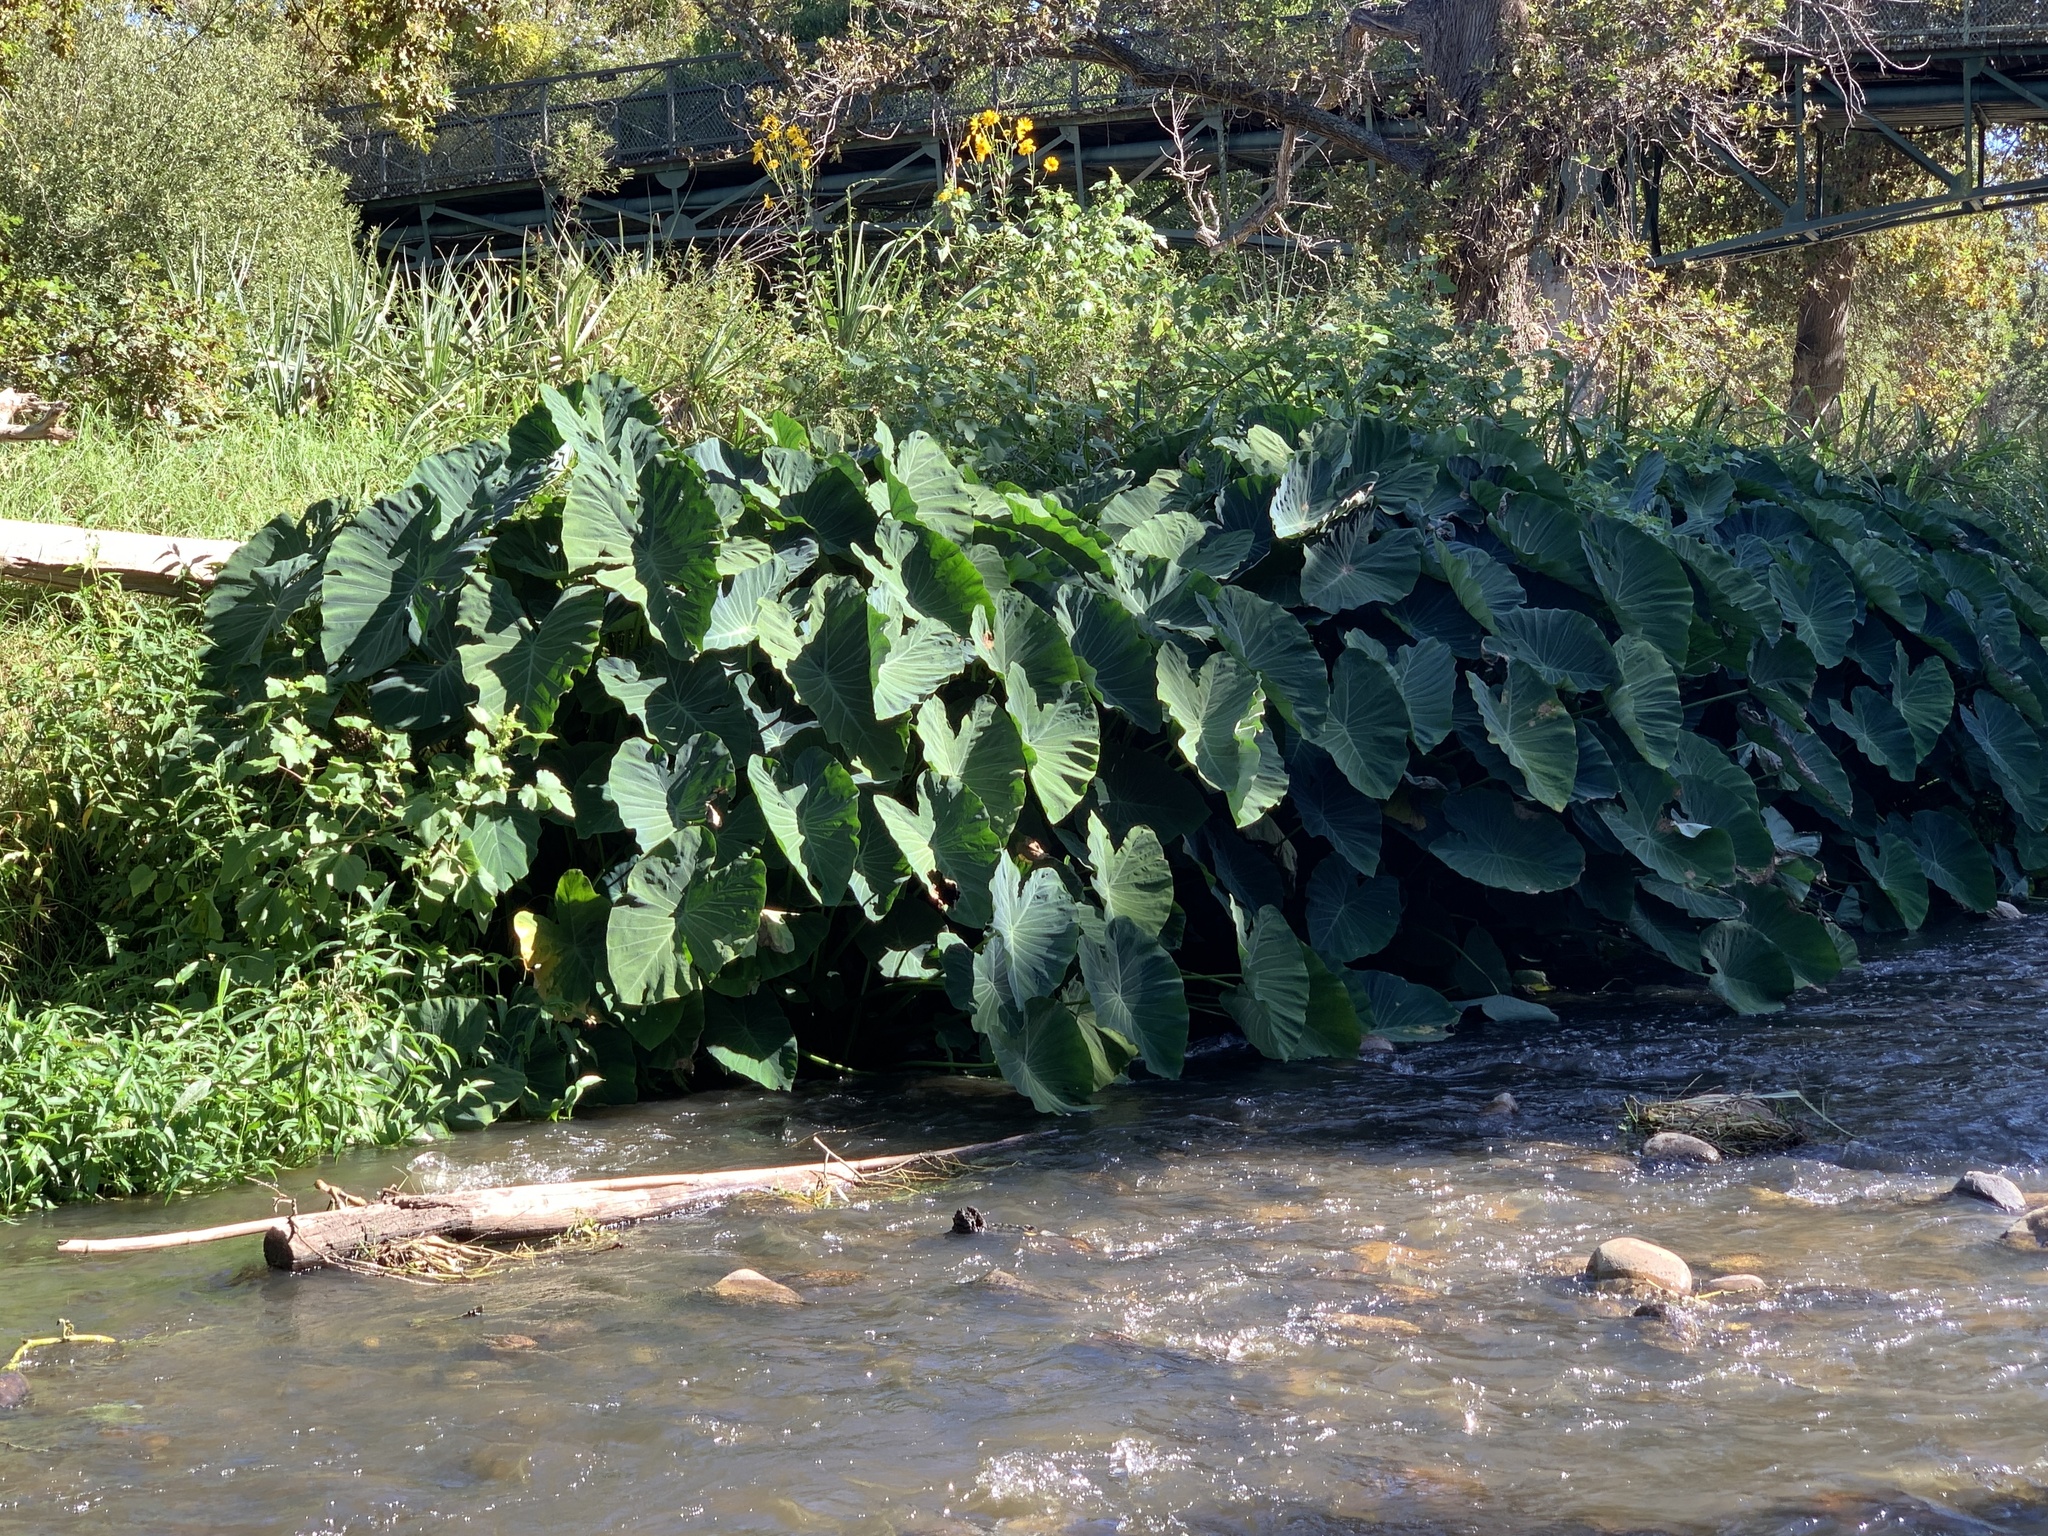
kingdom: Plantae
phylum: Tracheophyta
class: Liliopsida
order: Alismatales
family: Araceae
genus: Colocasia
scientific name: Colocasia esculenta
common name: Taro
